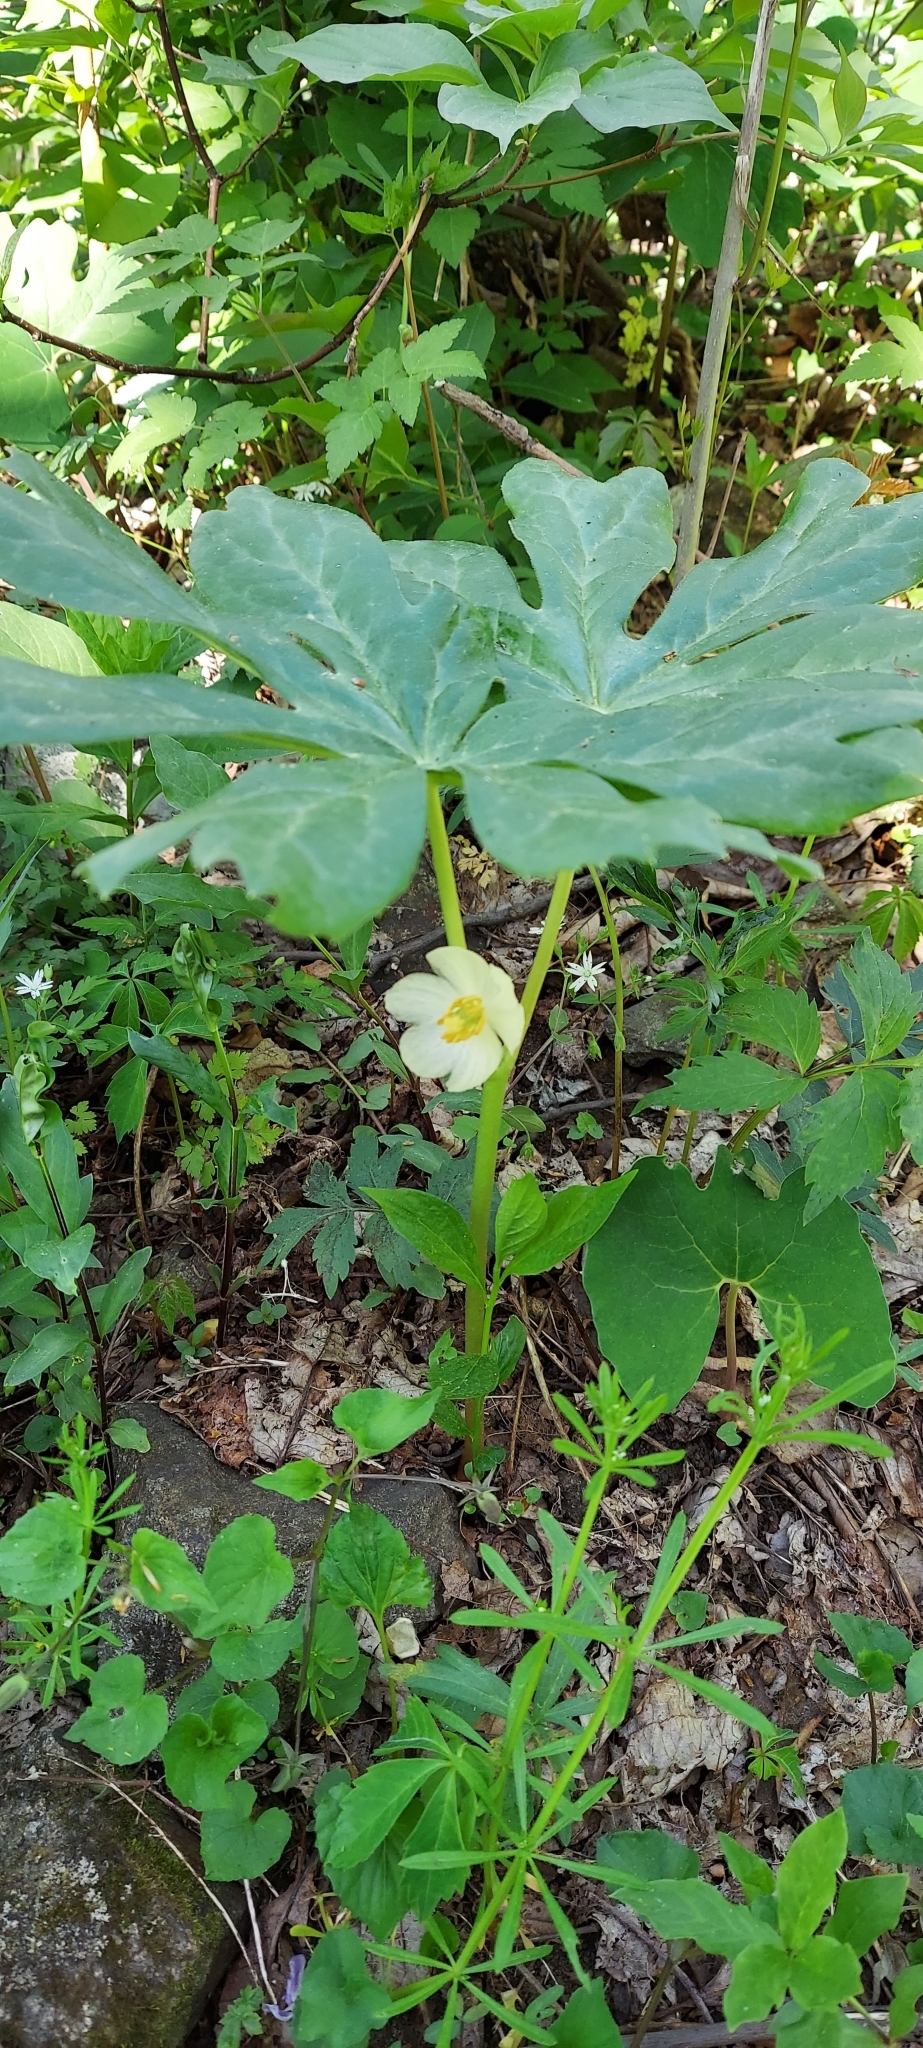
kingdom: Plantae
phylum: Tracheophyta
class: Magnoliopsida
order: Ranunculales
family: Berberidaceae
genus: Podophyllum
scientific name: Podophyllum peltatum
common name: Wild mandrake
